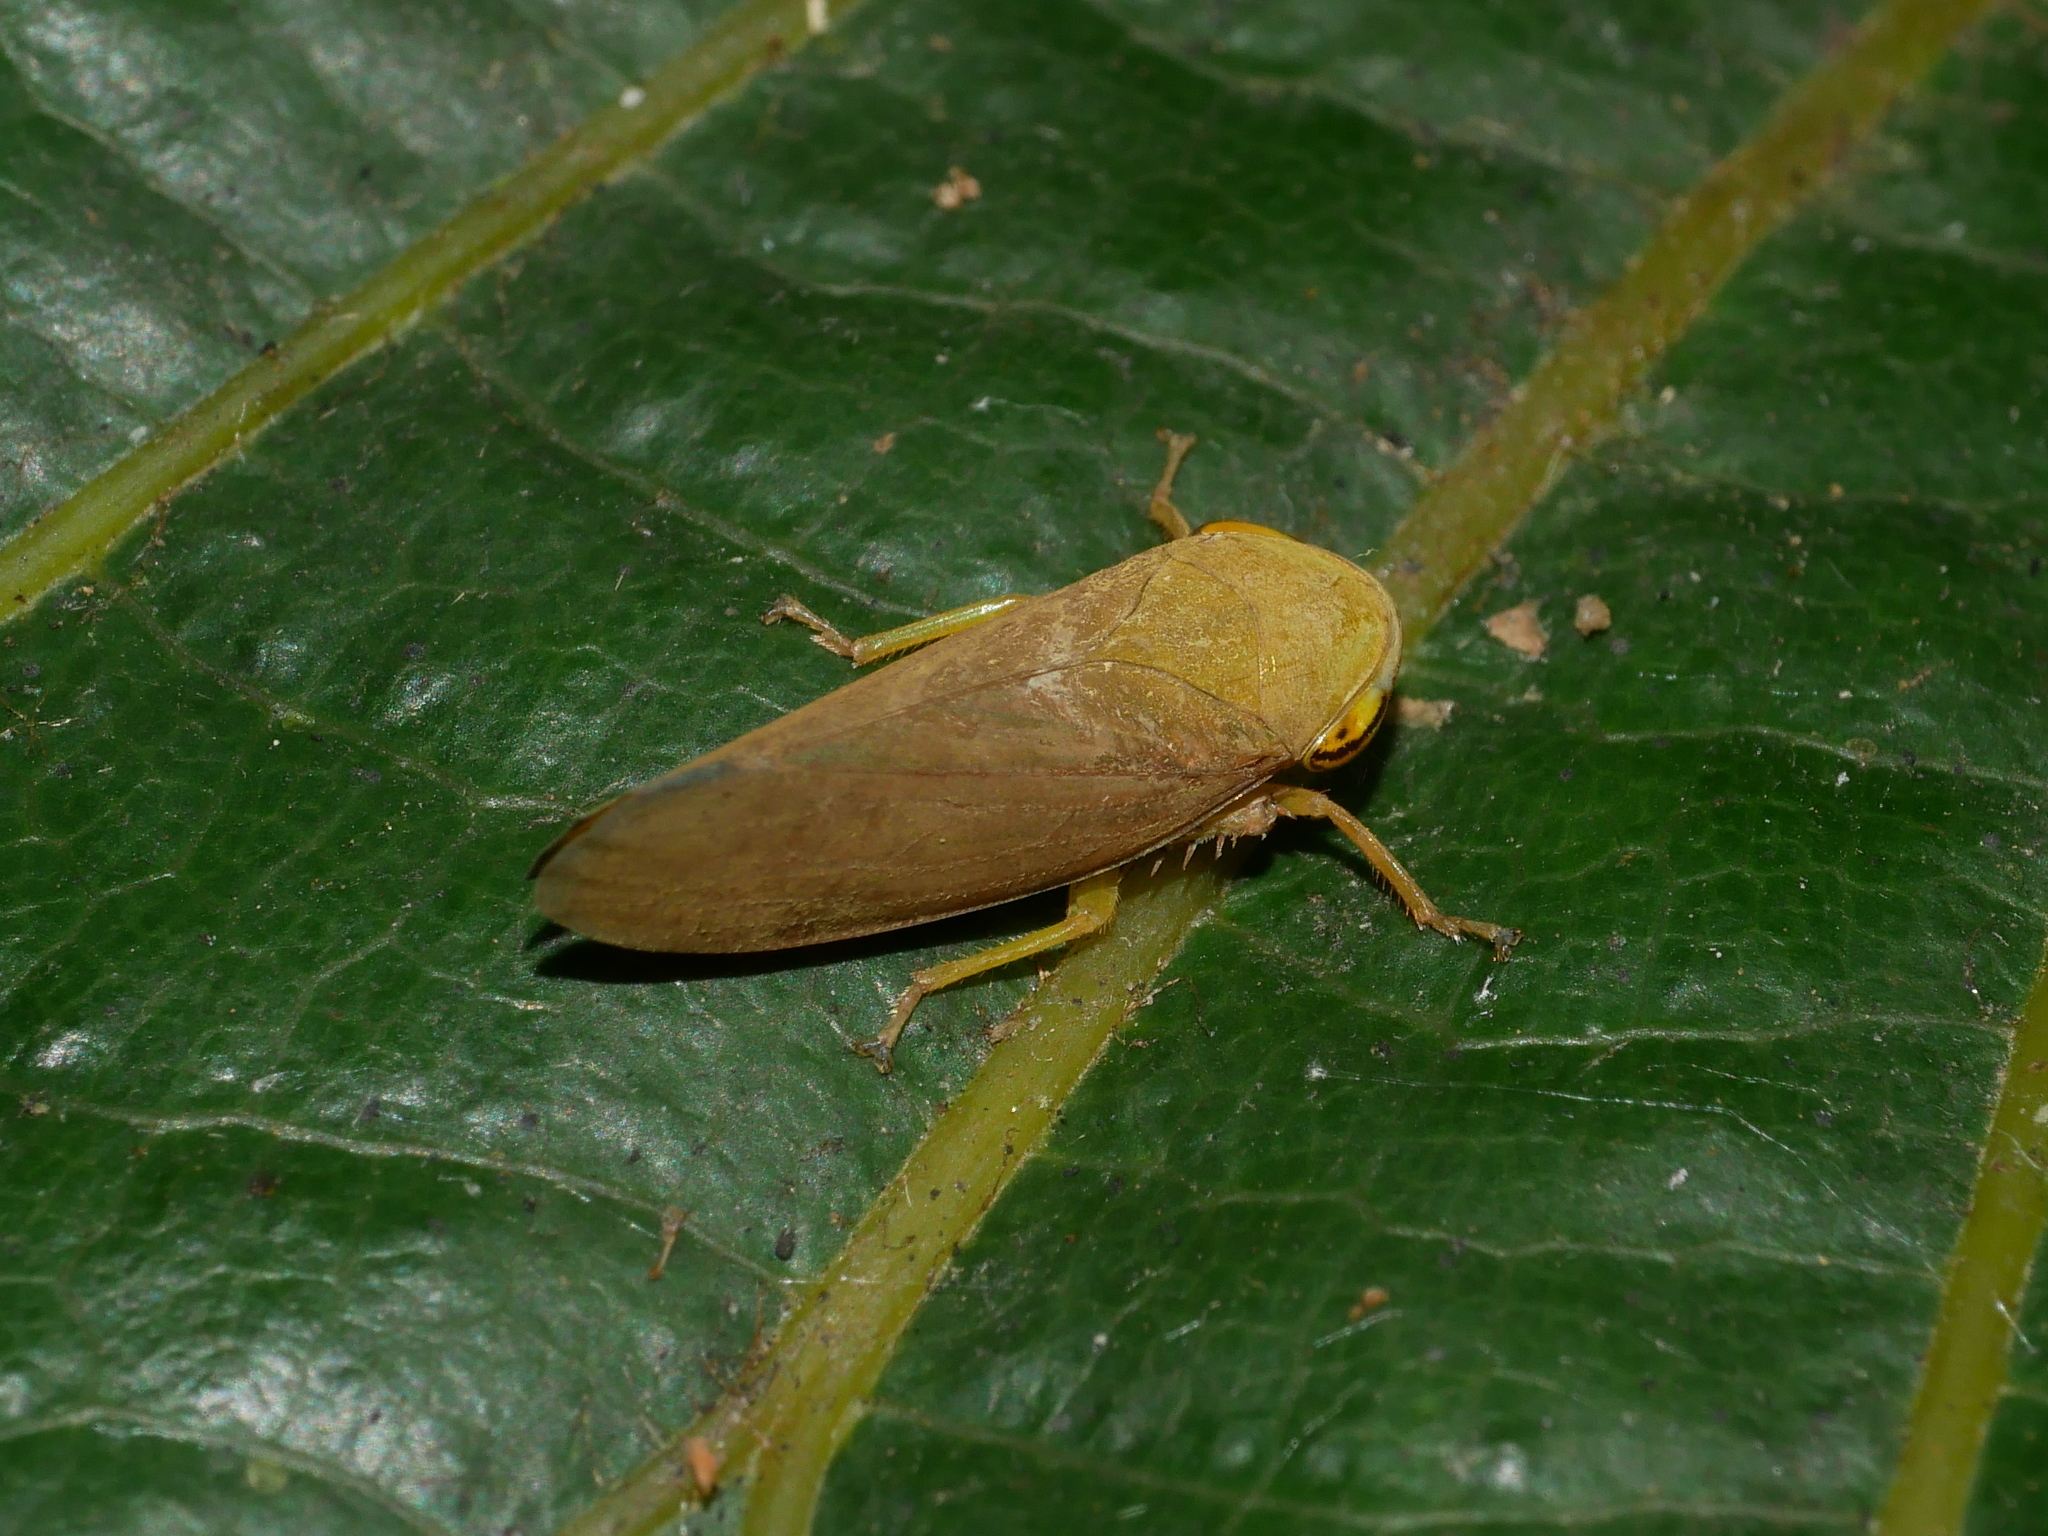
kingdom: Animalia
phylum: Arthropoda
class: Insecta
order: Hemiptera
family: Cicadellidae
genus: Tartessus
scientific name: Tartessus ferrugineus
